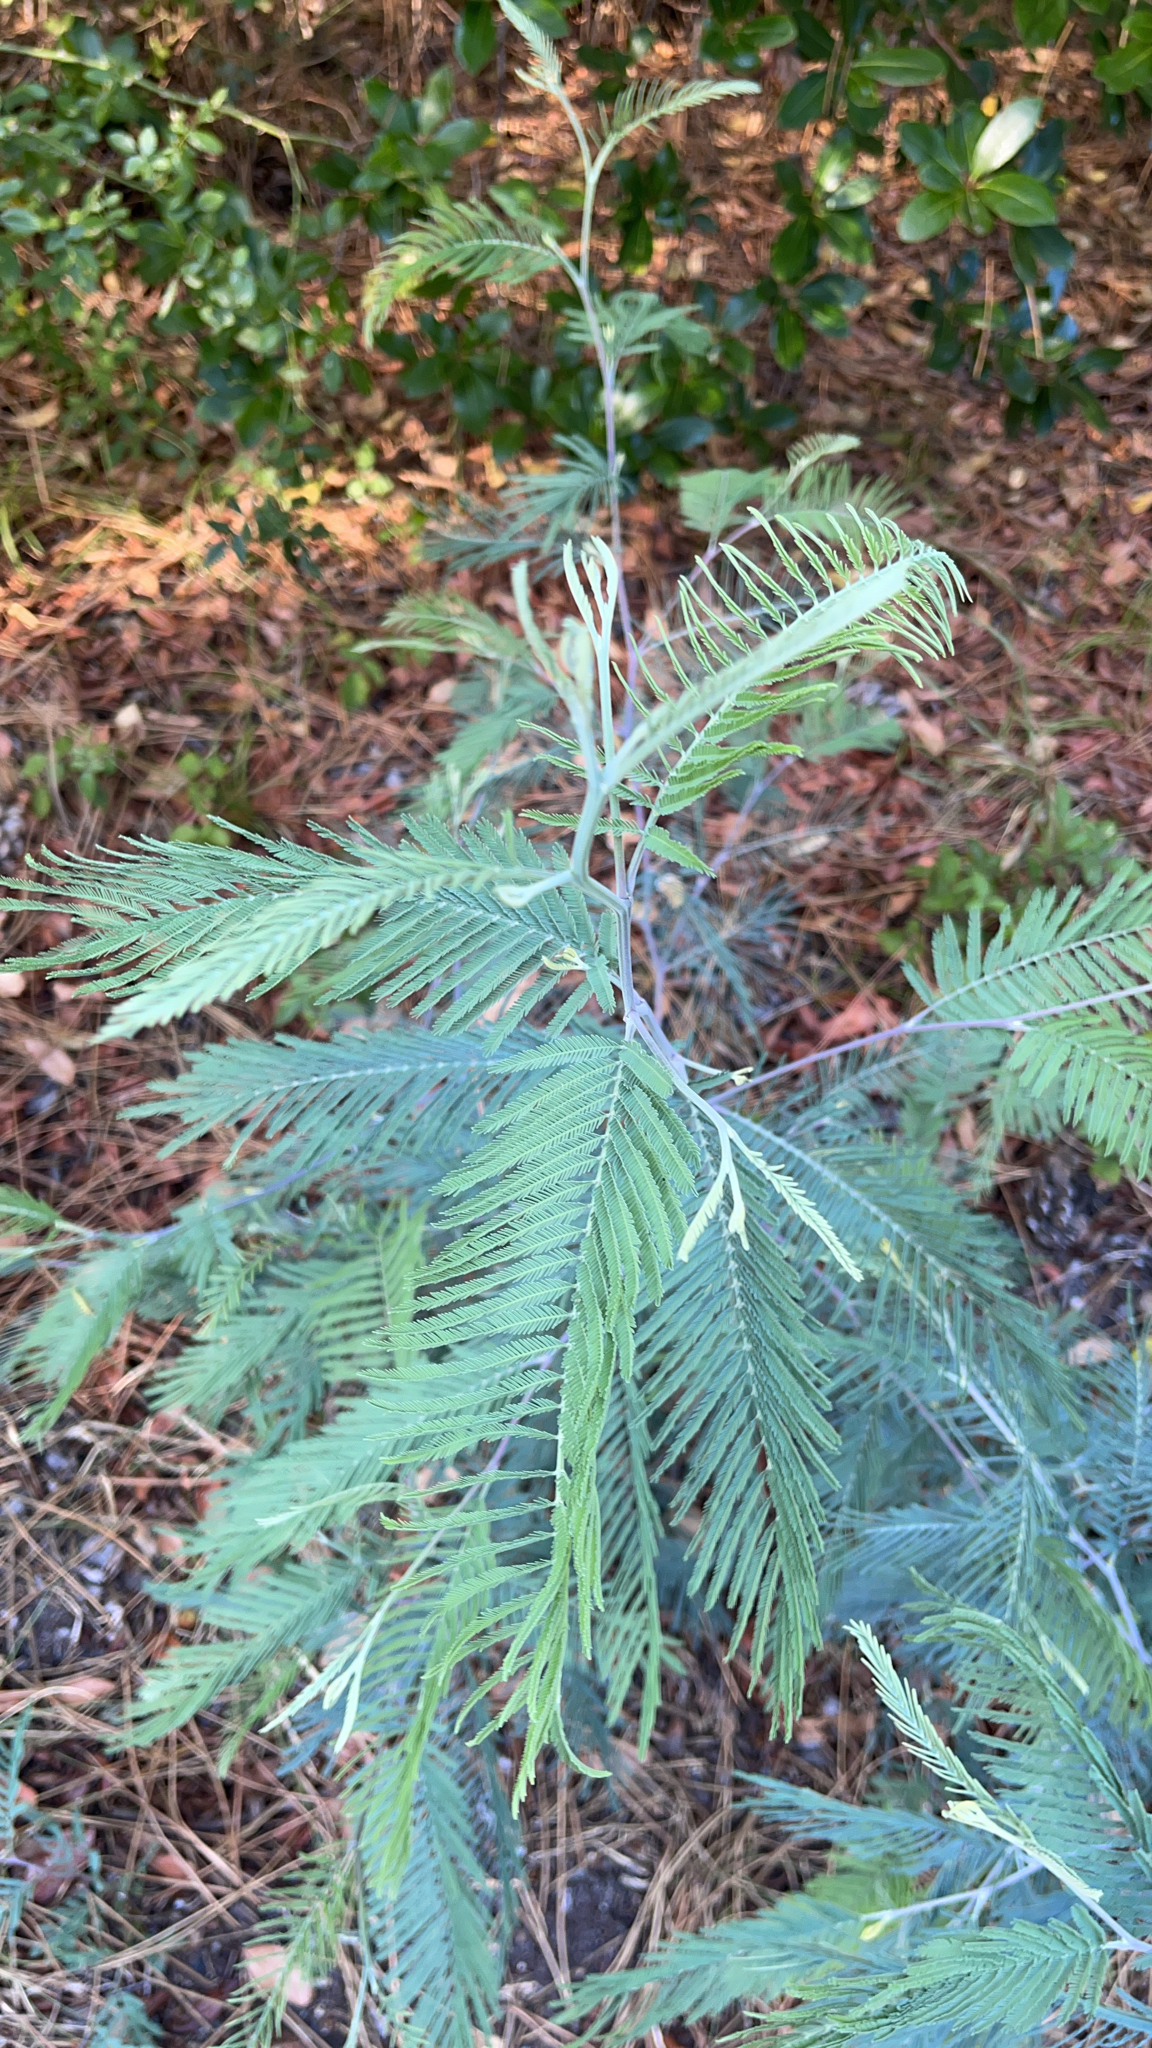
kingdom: Plantae
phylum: Tracheophyta
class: Magnoliopsida
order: Fabales
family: Fabaceae
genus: Acacia
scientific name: Acacia dealbata
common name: Silver wattle
